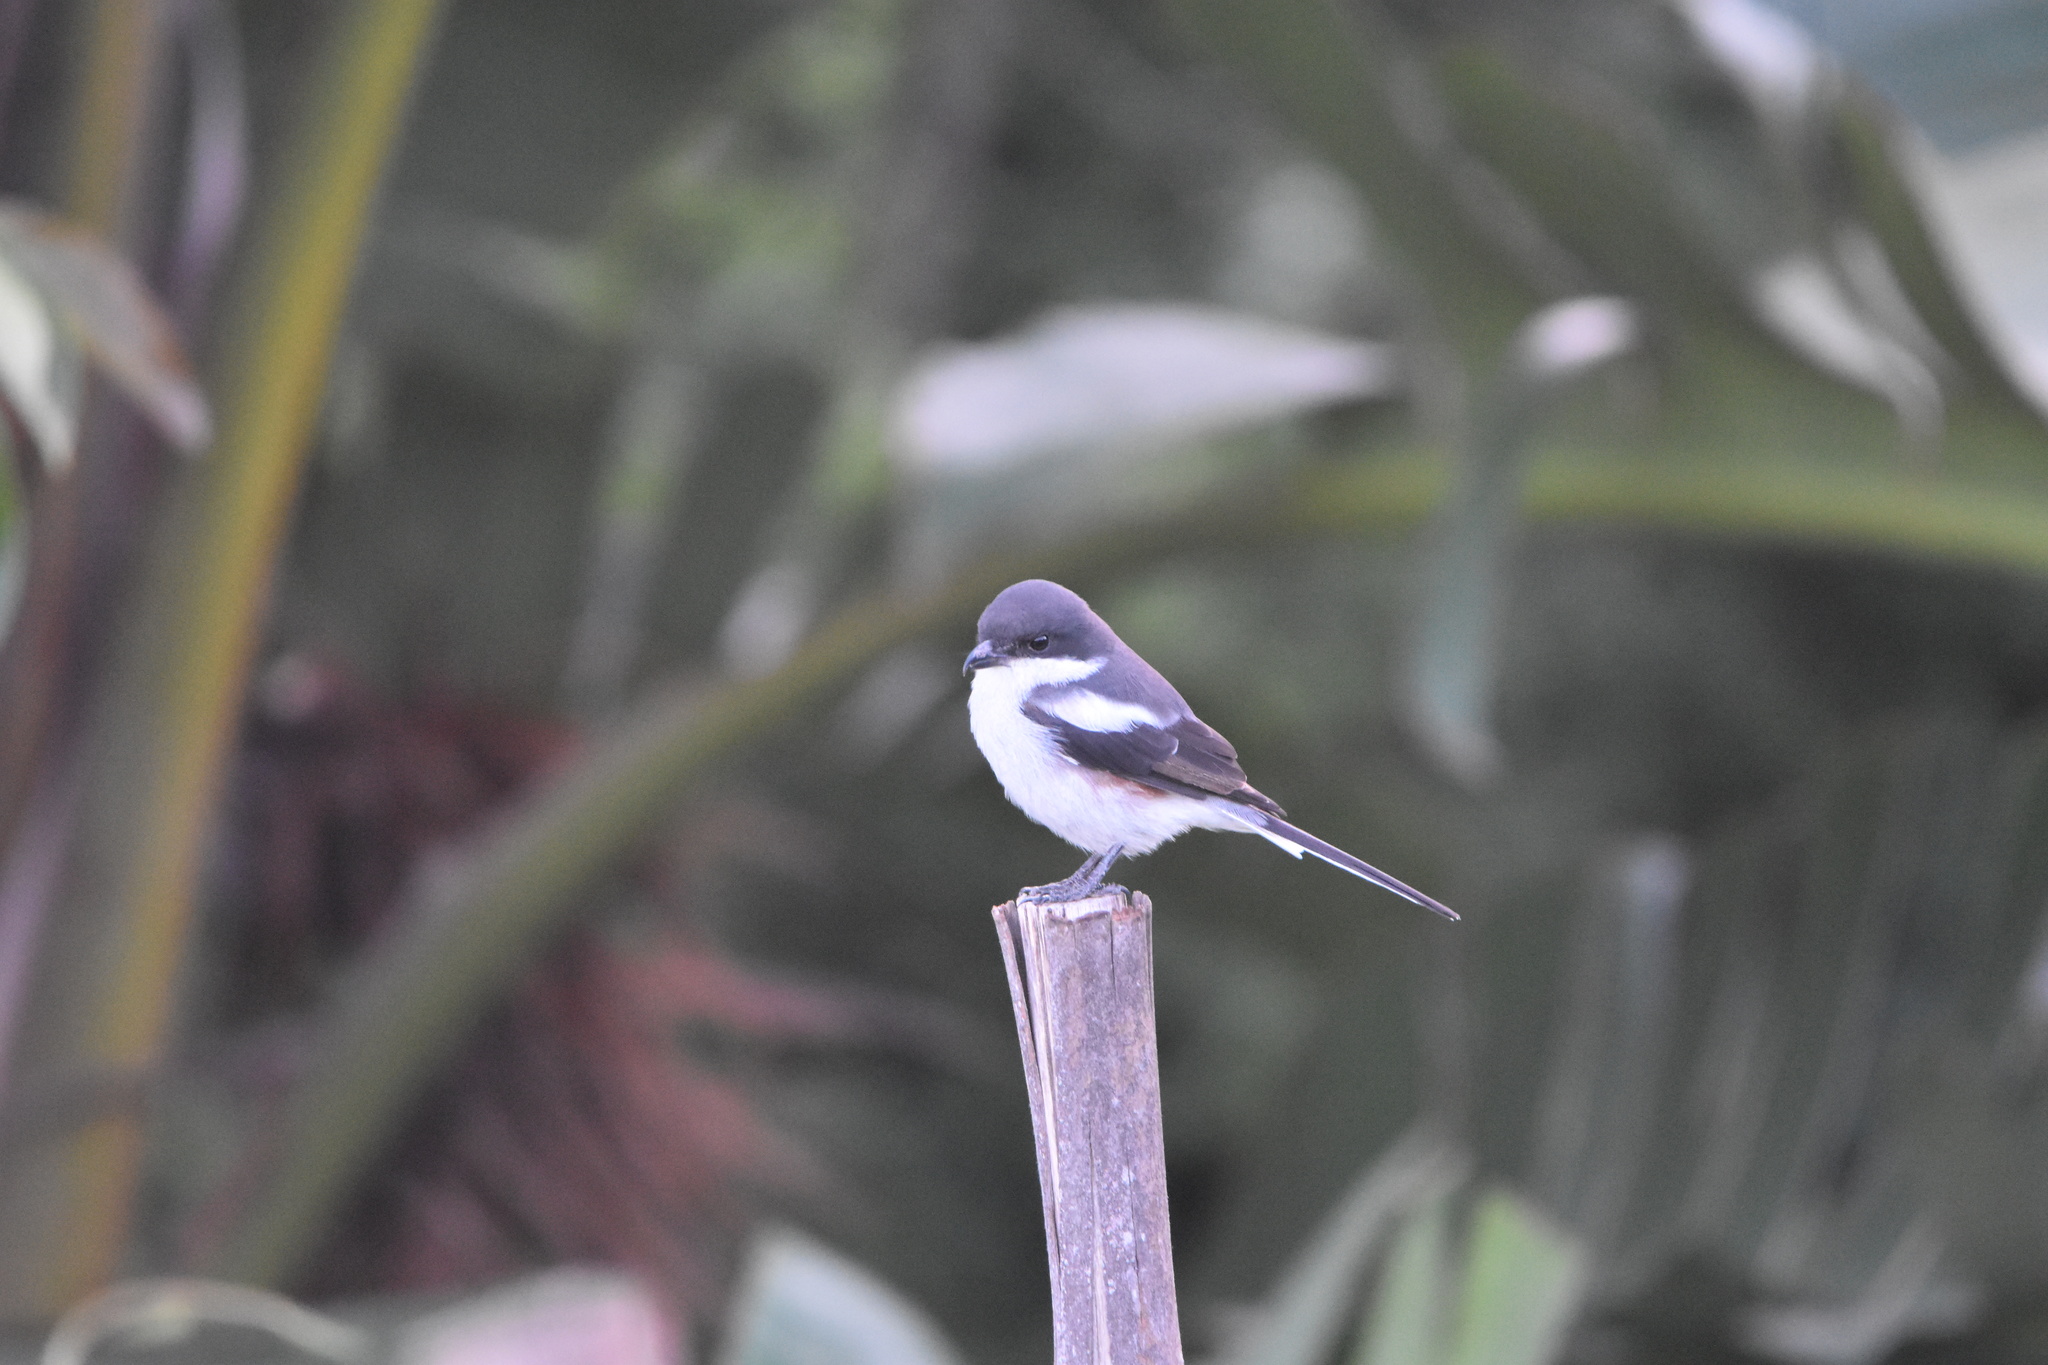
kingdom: Animalia
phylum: Chordata
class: Aves
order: Passeriformes
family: Laniidae
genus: Lanius
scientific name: Lanius collaris
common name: Southern fiscal
